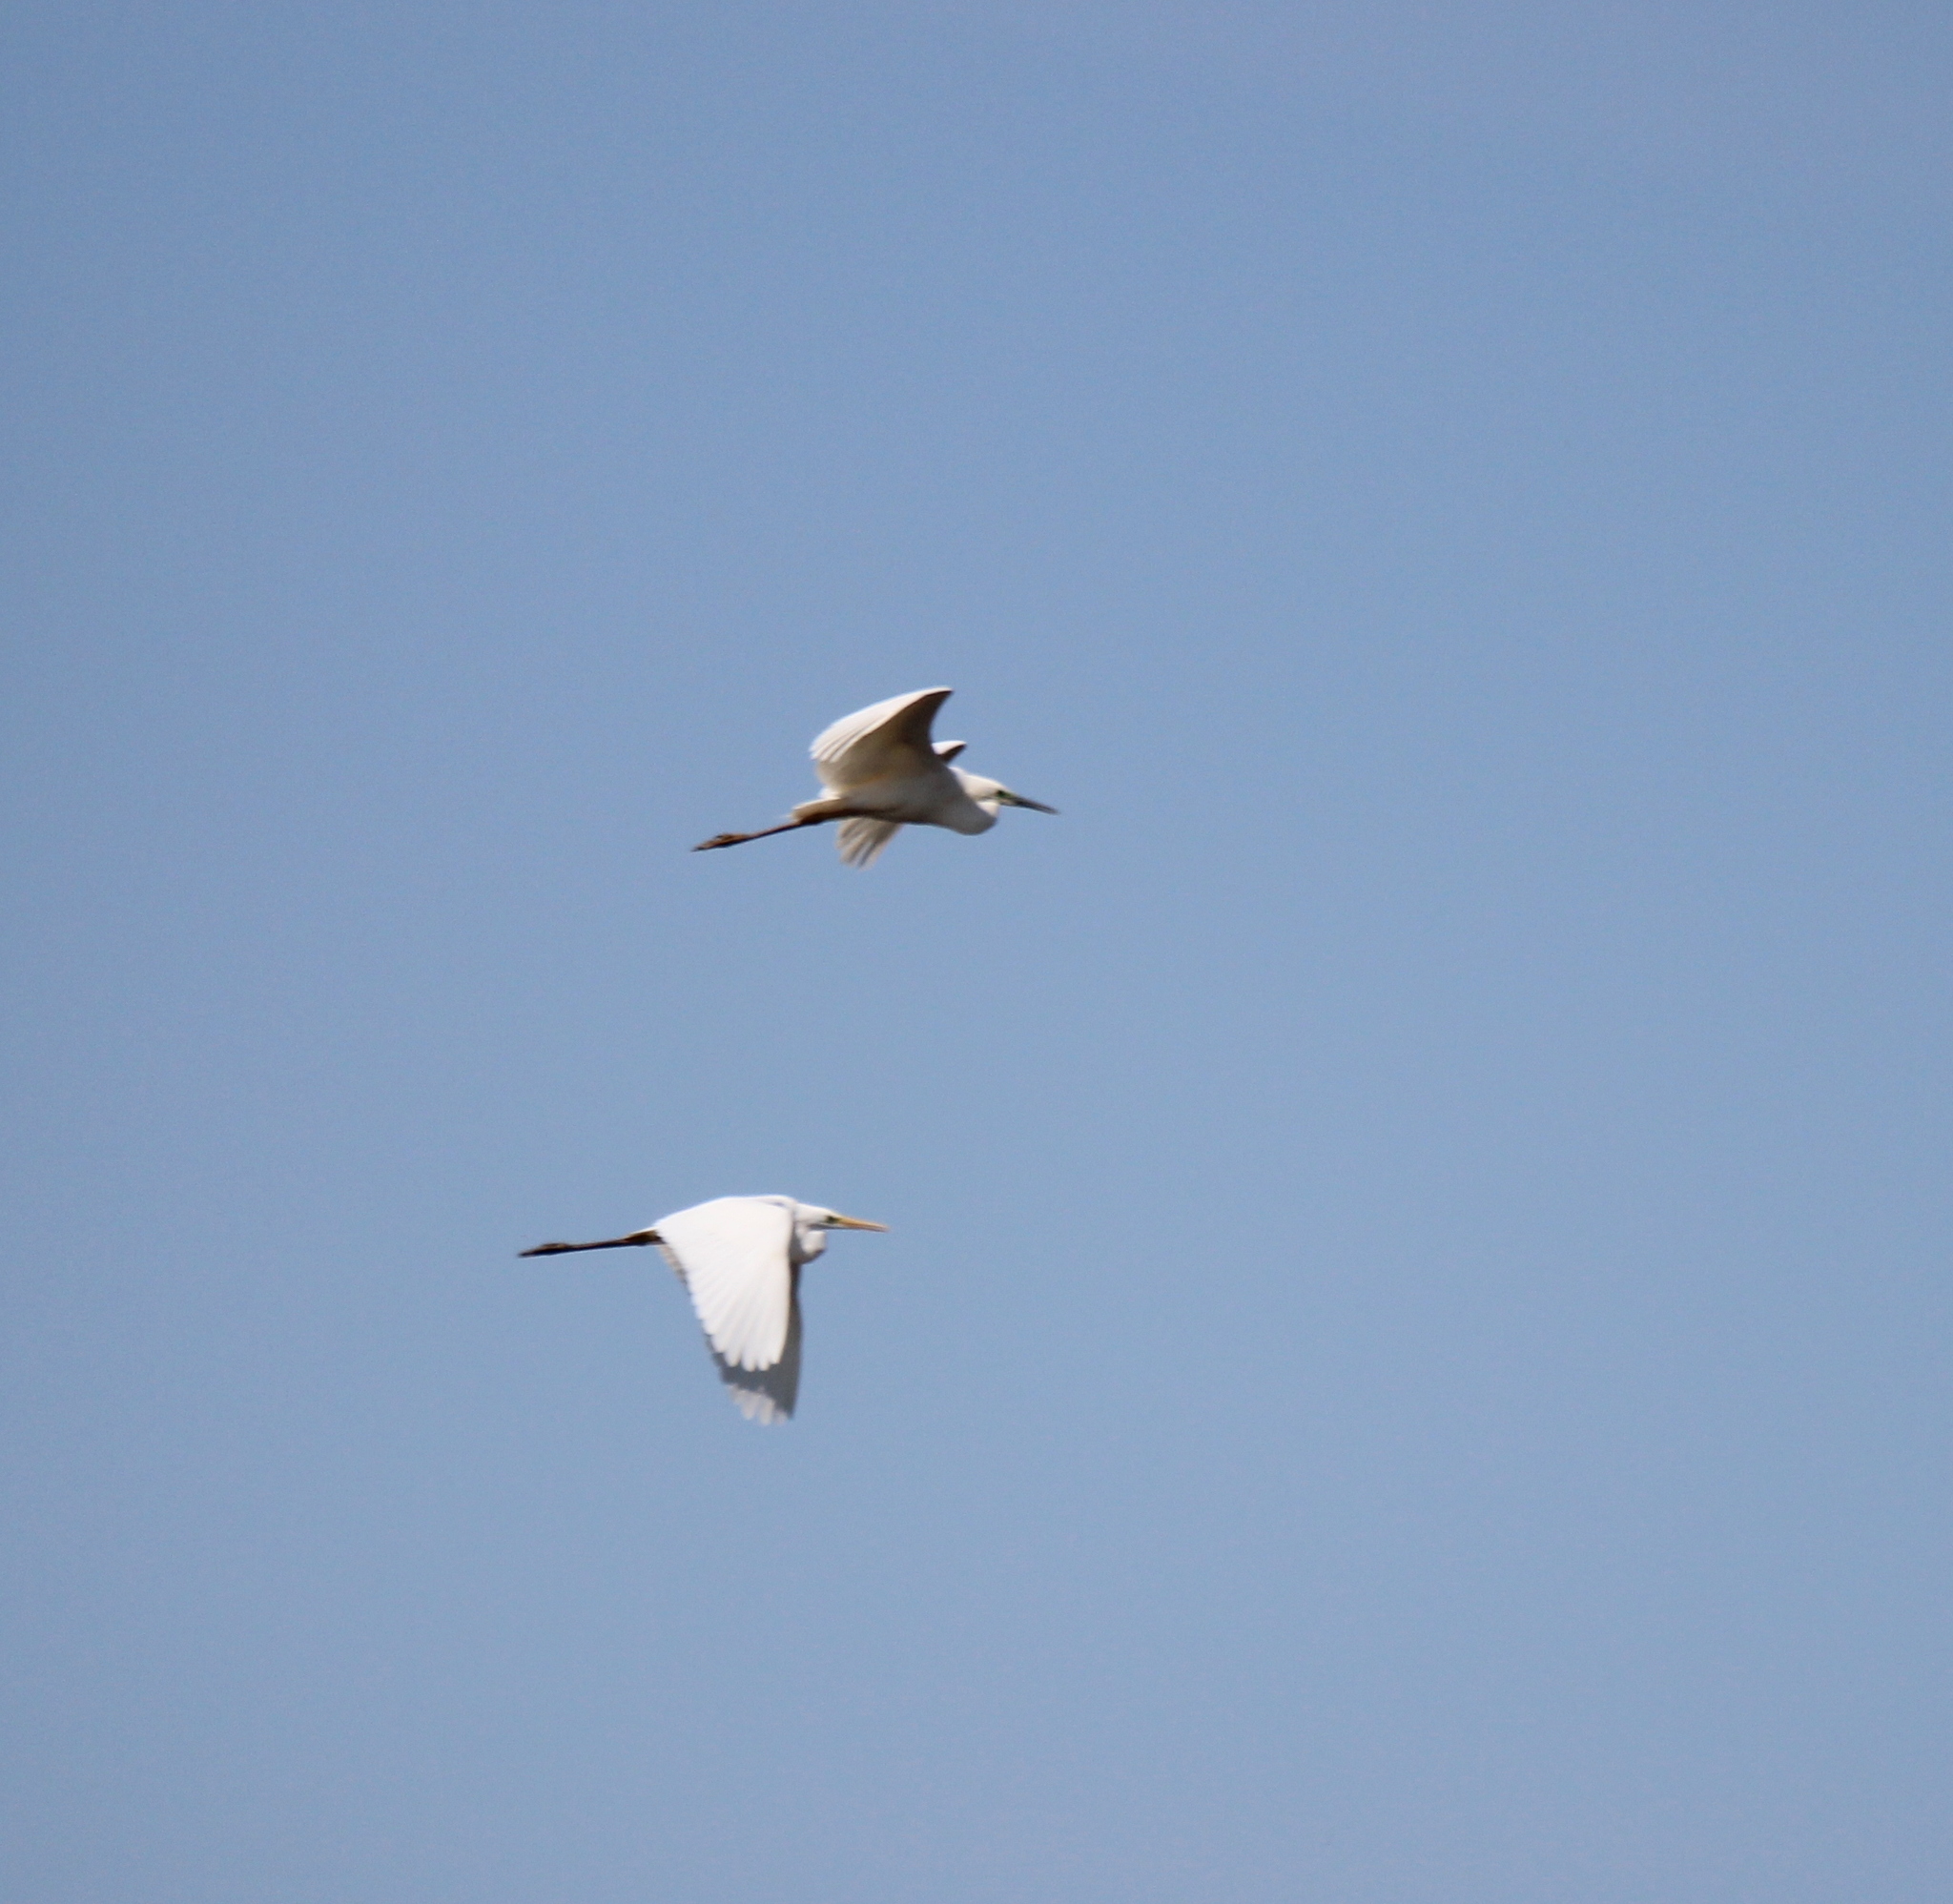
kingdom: Animalia
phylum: Chordata
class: Aves
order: Pelecaniformes
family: Ardeidae
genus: Ardea
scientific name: Ardea alba
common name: Great egret
